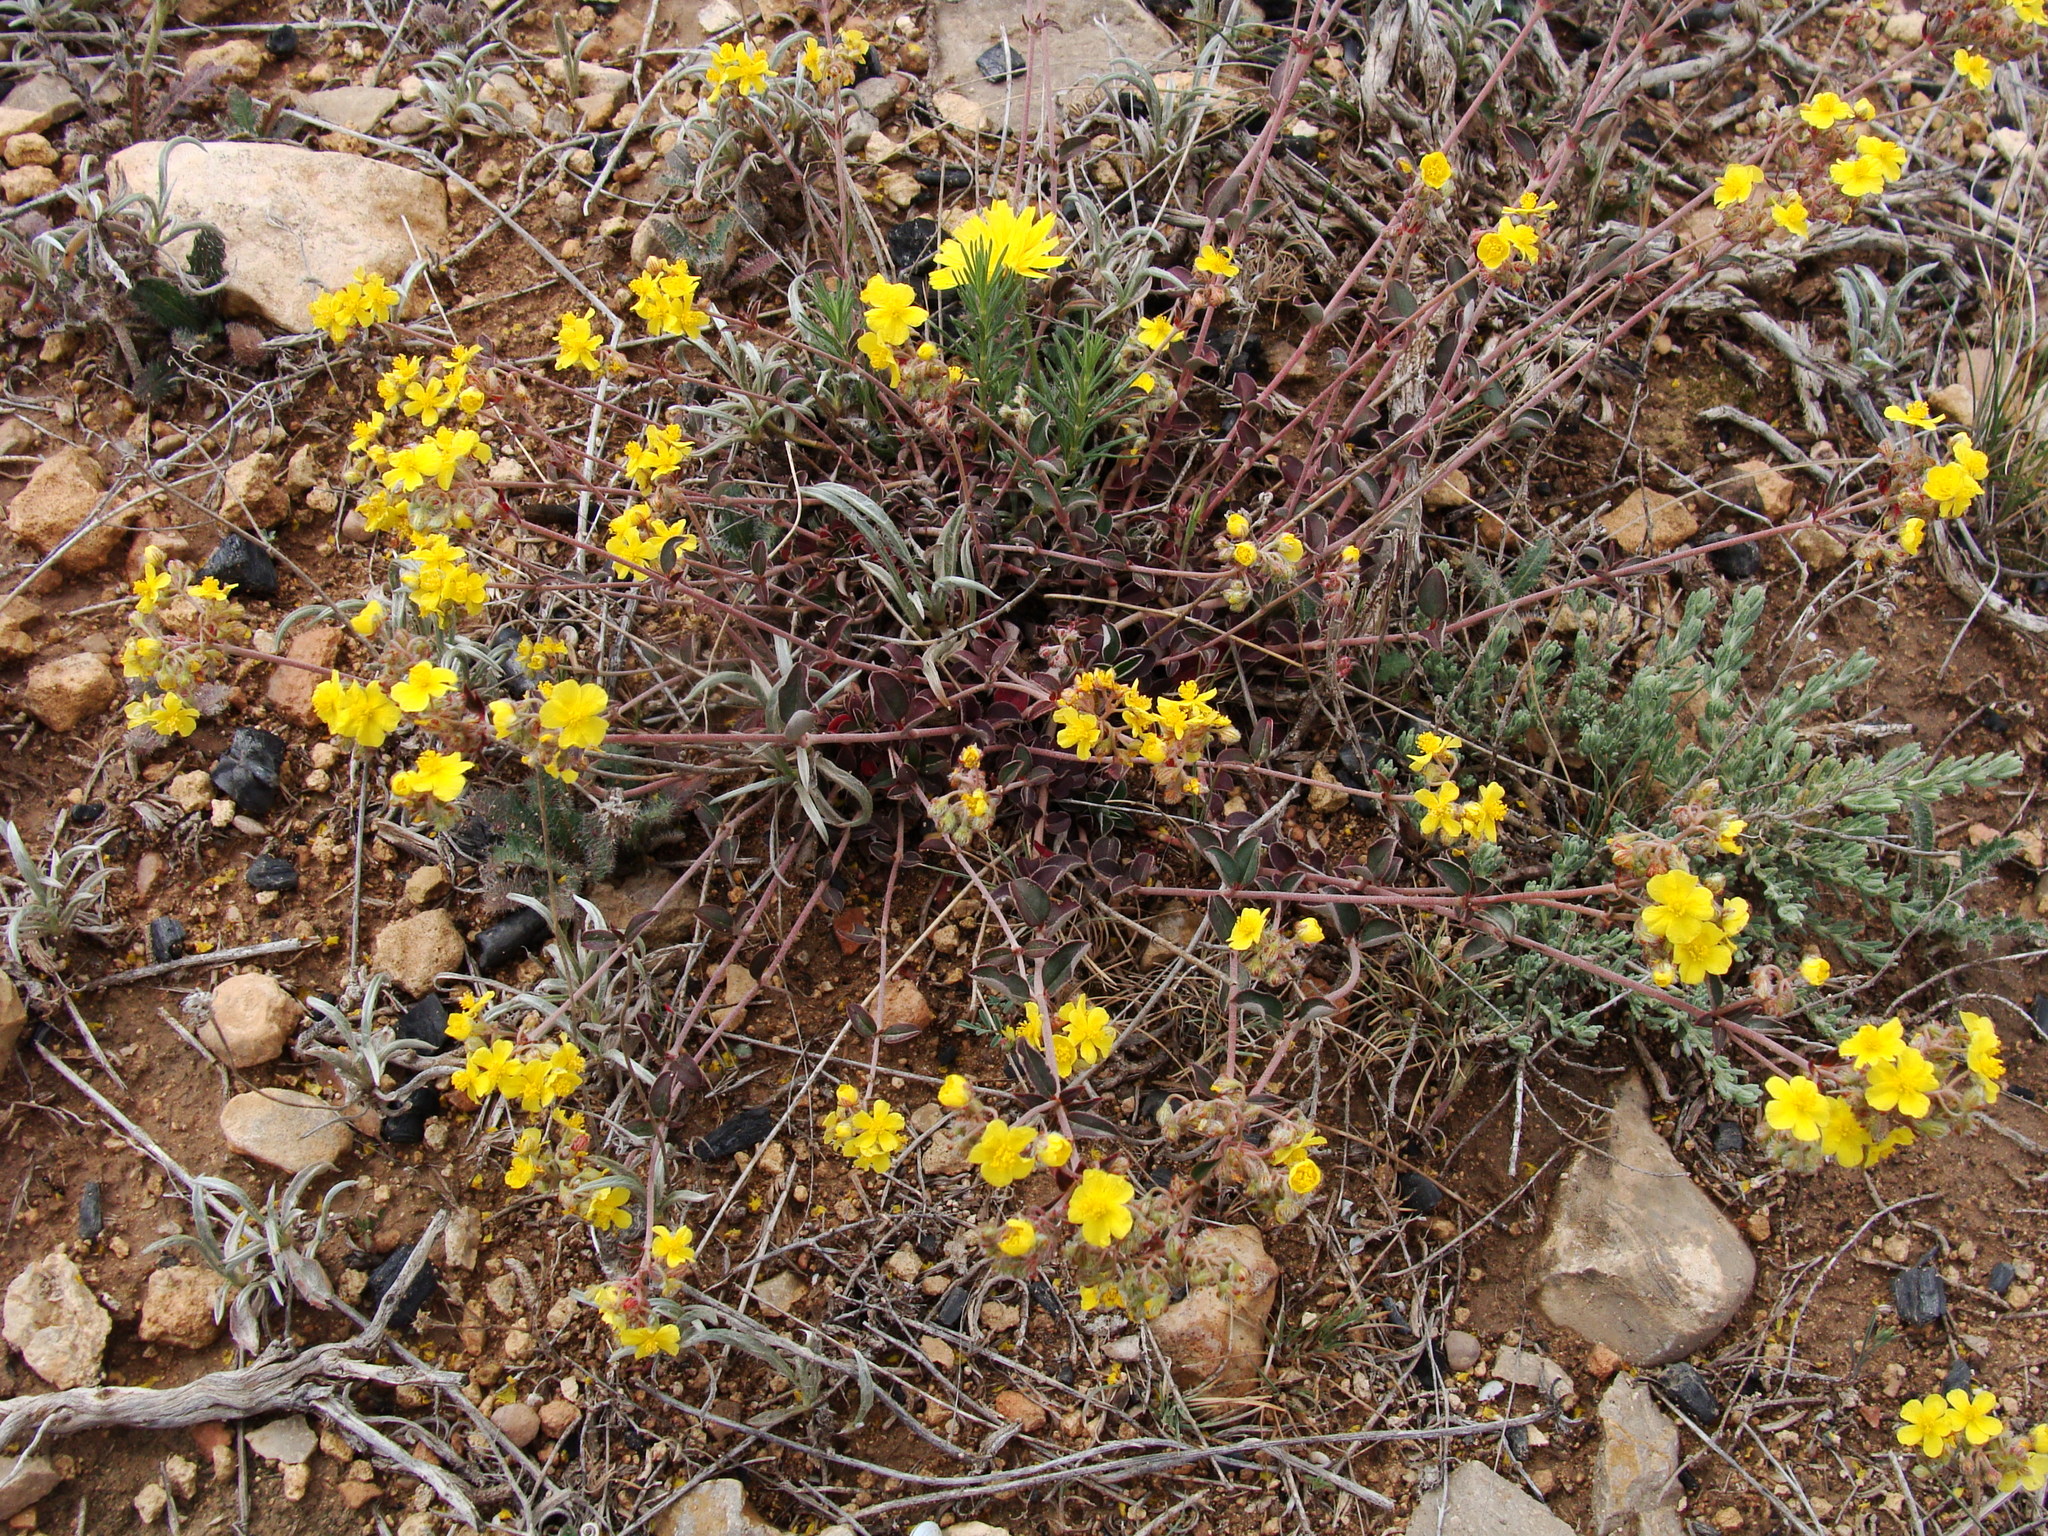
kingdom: Plantae
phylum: Tracheophyta
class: Magnoliopsida
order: Malvales
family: Cistaceae
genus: Helianthemum
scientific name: Helianthemum cinereum
